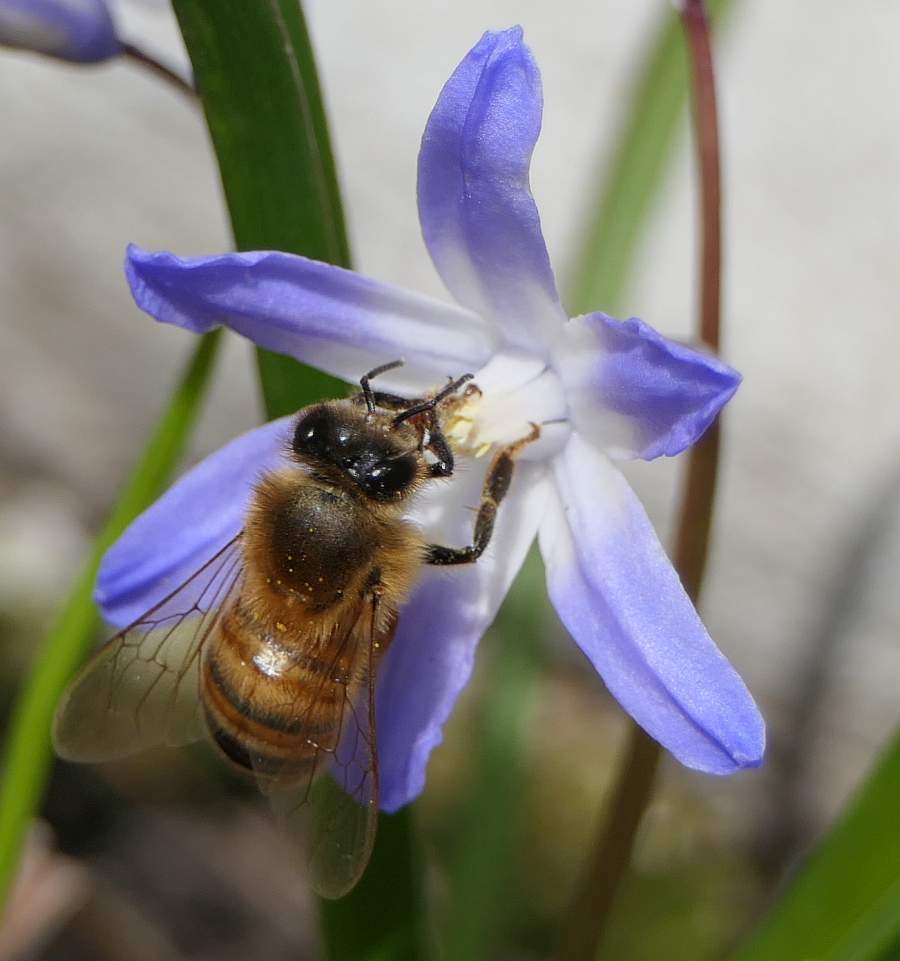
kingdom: Animalia
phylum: Arthropoda
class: Insecta
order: Hymenoptera
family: Apidae
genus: Apis
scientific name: Apis mellifera
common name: Honey bee
